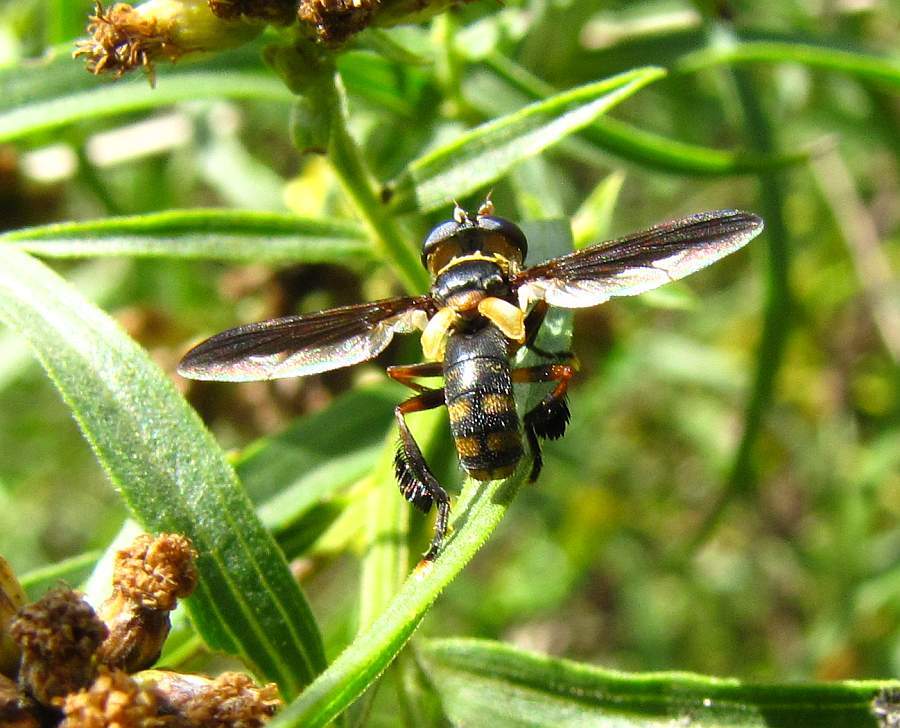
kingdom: Animalia
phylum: Arthropoda
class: Insecta
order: Diptera
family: Tachinidae
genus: Trichopoda
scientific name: Trichopoda plumipes
